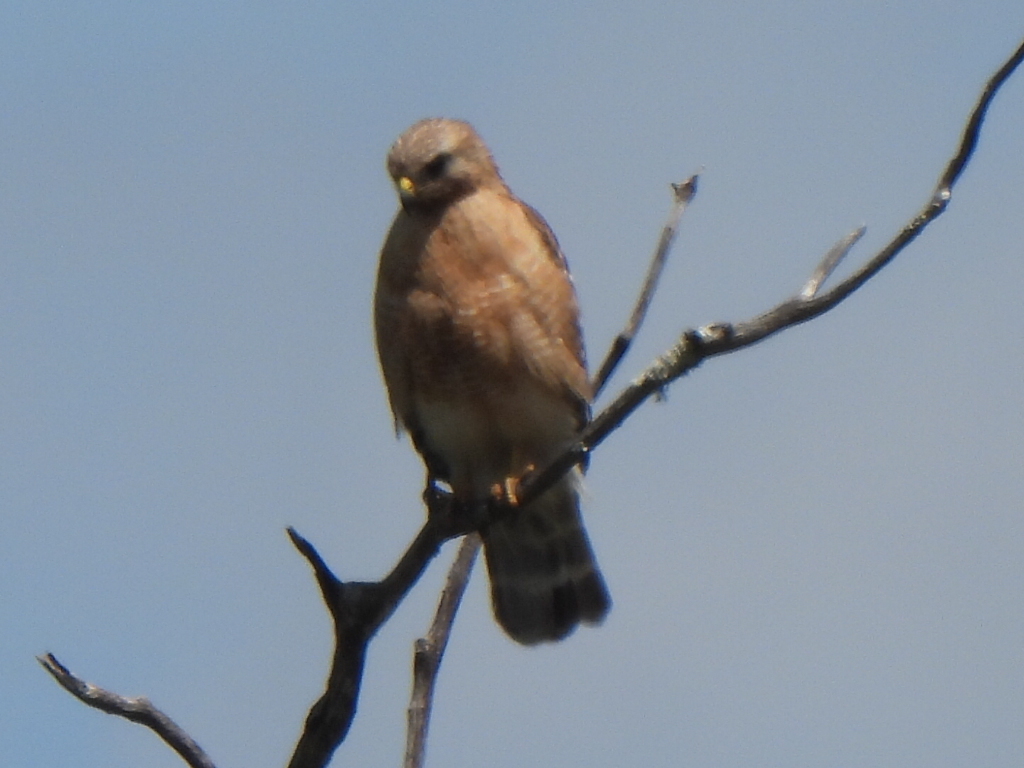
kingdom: Animalia
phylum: Chordata
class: Aves
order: Accipitriformes
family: Accipitridae
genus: Buteo
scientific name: Buteo lineatus
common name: Red-shouldered hawk
